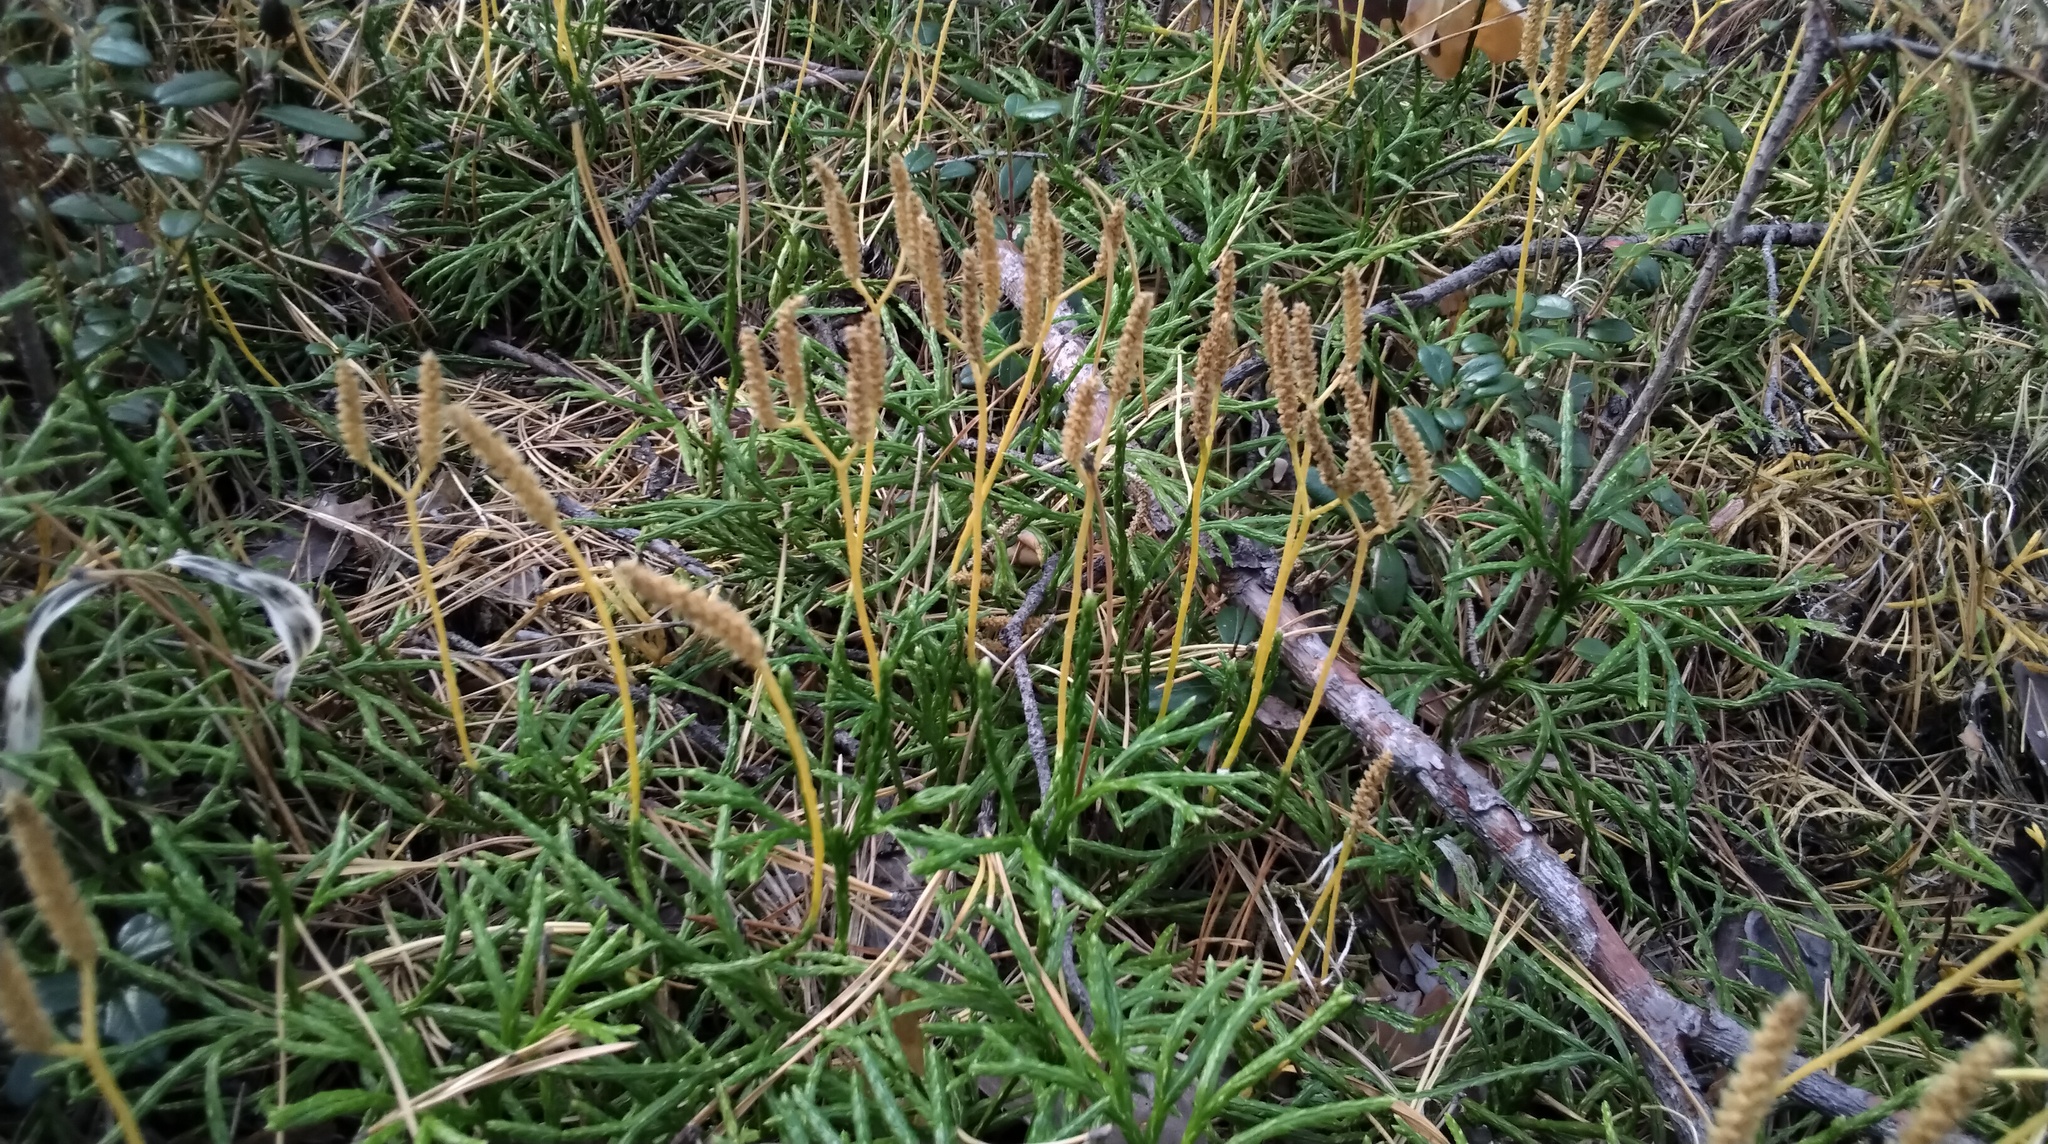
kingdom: Plantae
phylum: Tracheophyta
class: Lycopodiopsida
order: Lycopodiales
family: Lycopodiaceae
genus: Diphasiastrum
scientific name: Diphasiastrum complanatum
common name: Northern running-pine
